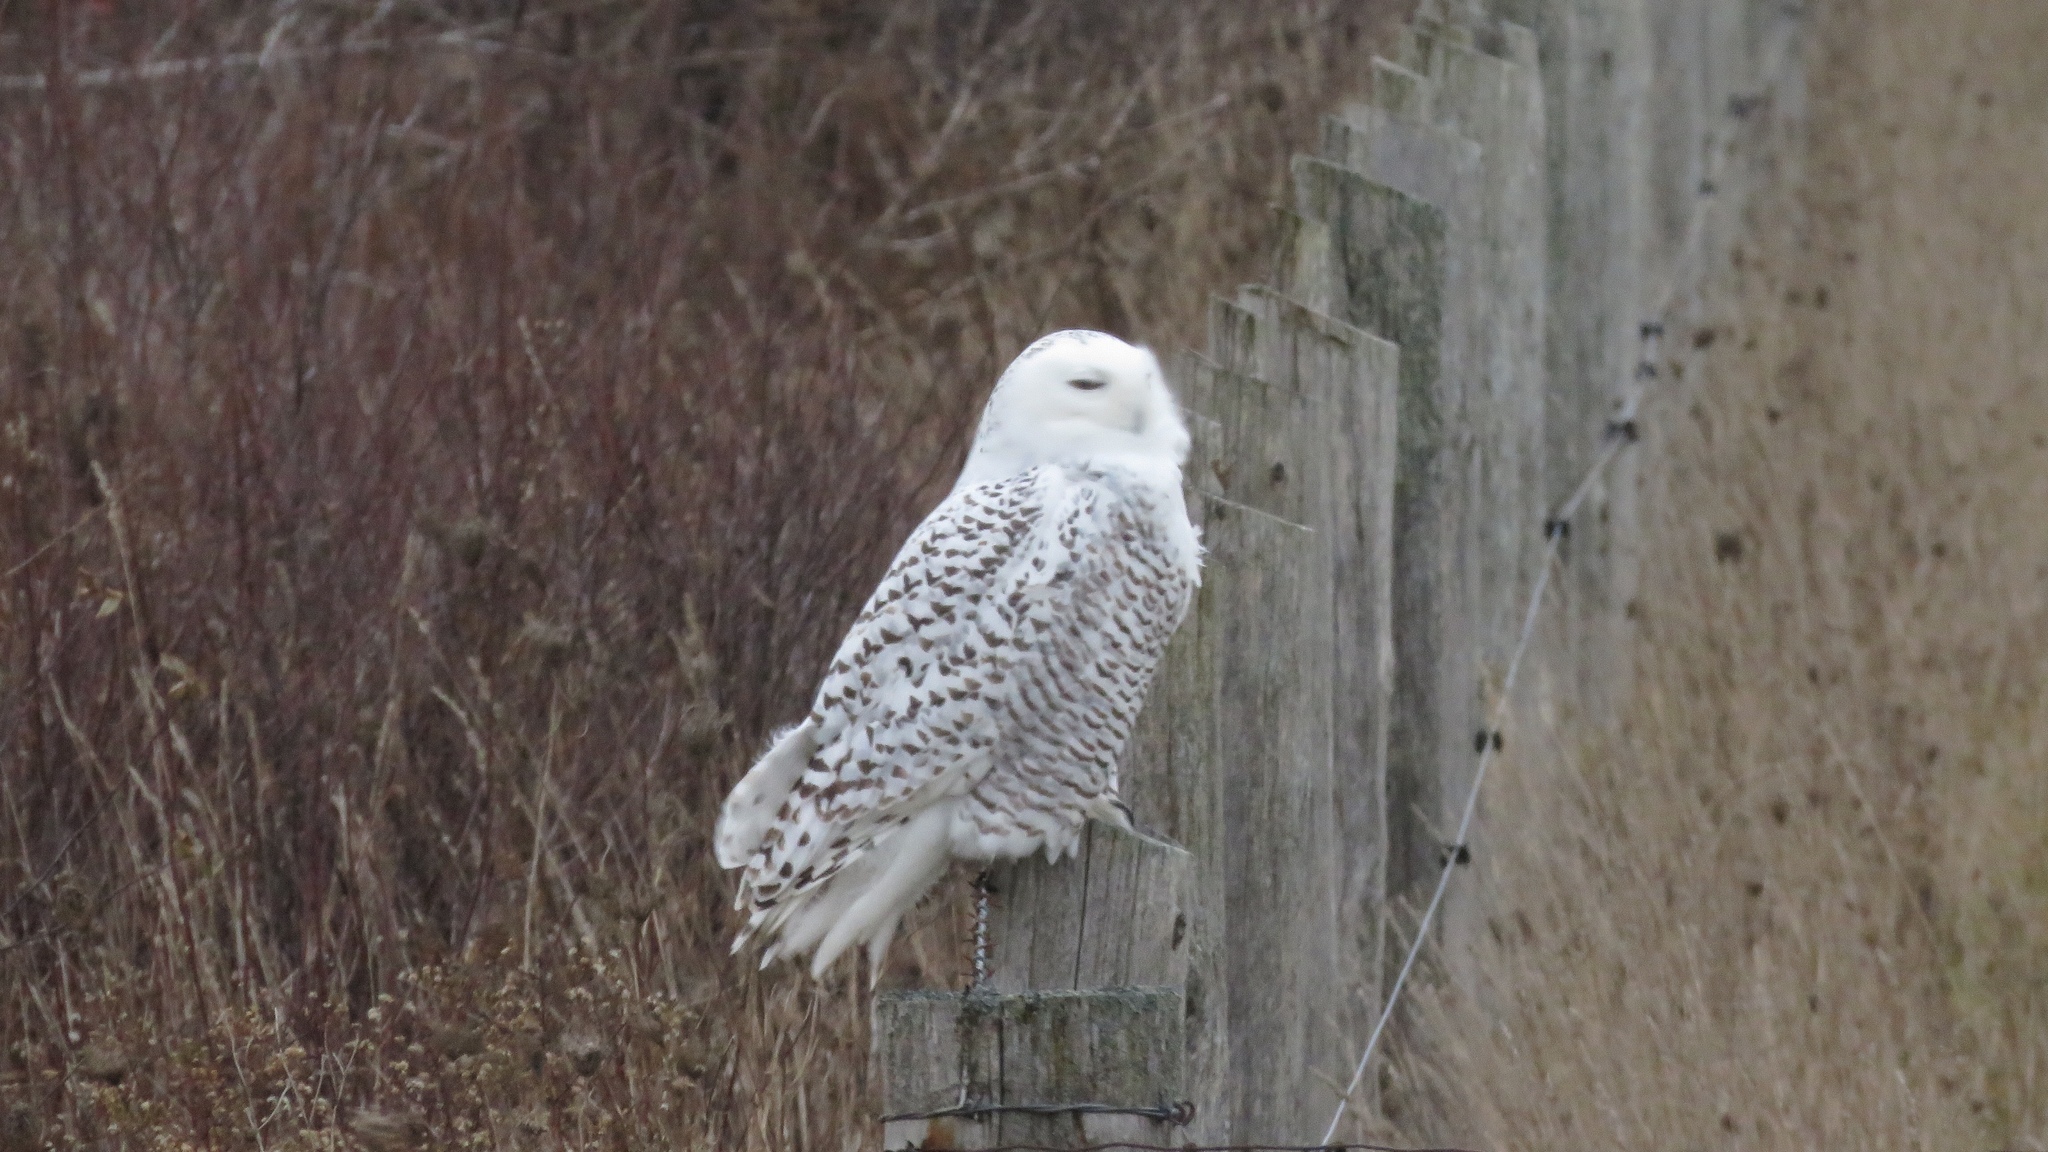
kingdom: Animalia
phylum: Chordata
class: Aves
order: Strigiformes
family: Strigidae
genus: Bubo
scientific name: Bubo scandiacus
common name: Snowy owl
